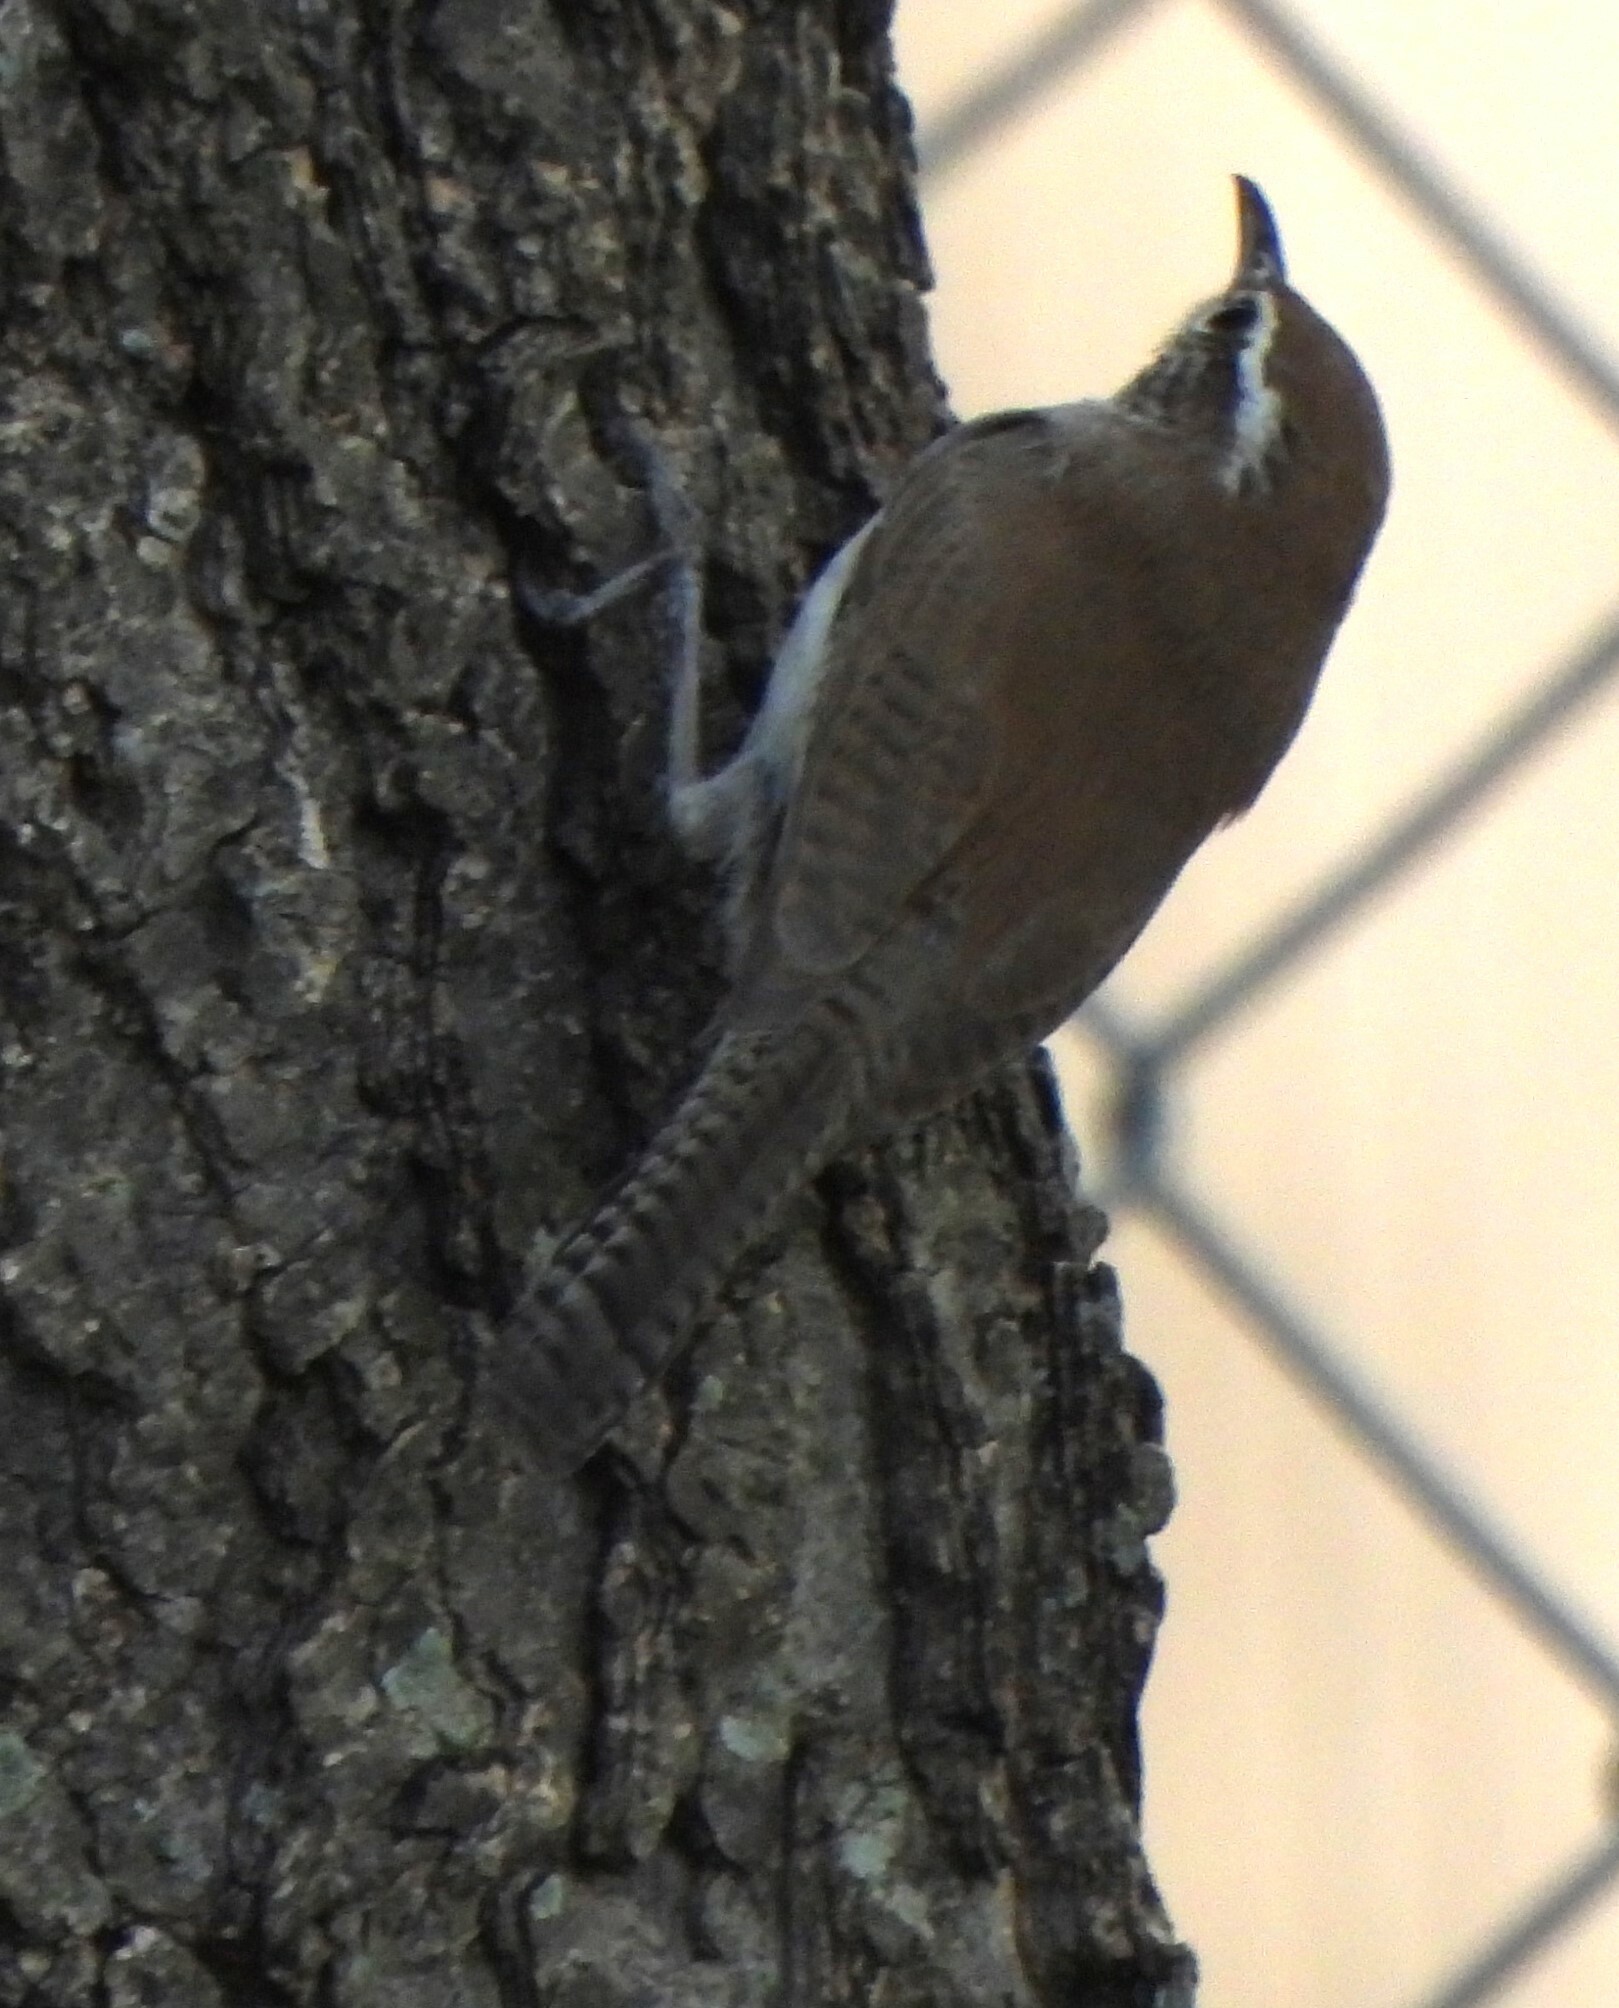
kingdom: Animalia
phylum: Chordata
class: Aves
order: Passeriformes
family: Troglodytidae
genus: Thryomanes
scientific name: Thryomanes bewickii
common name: Bewick's wren
